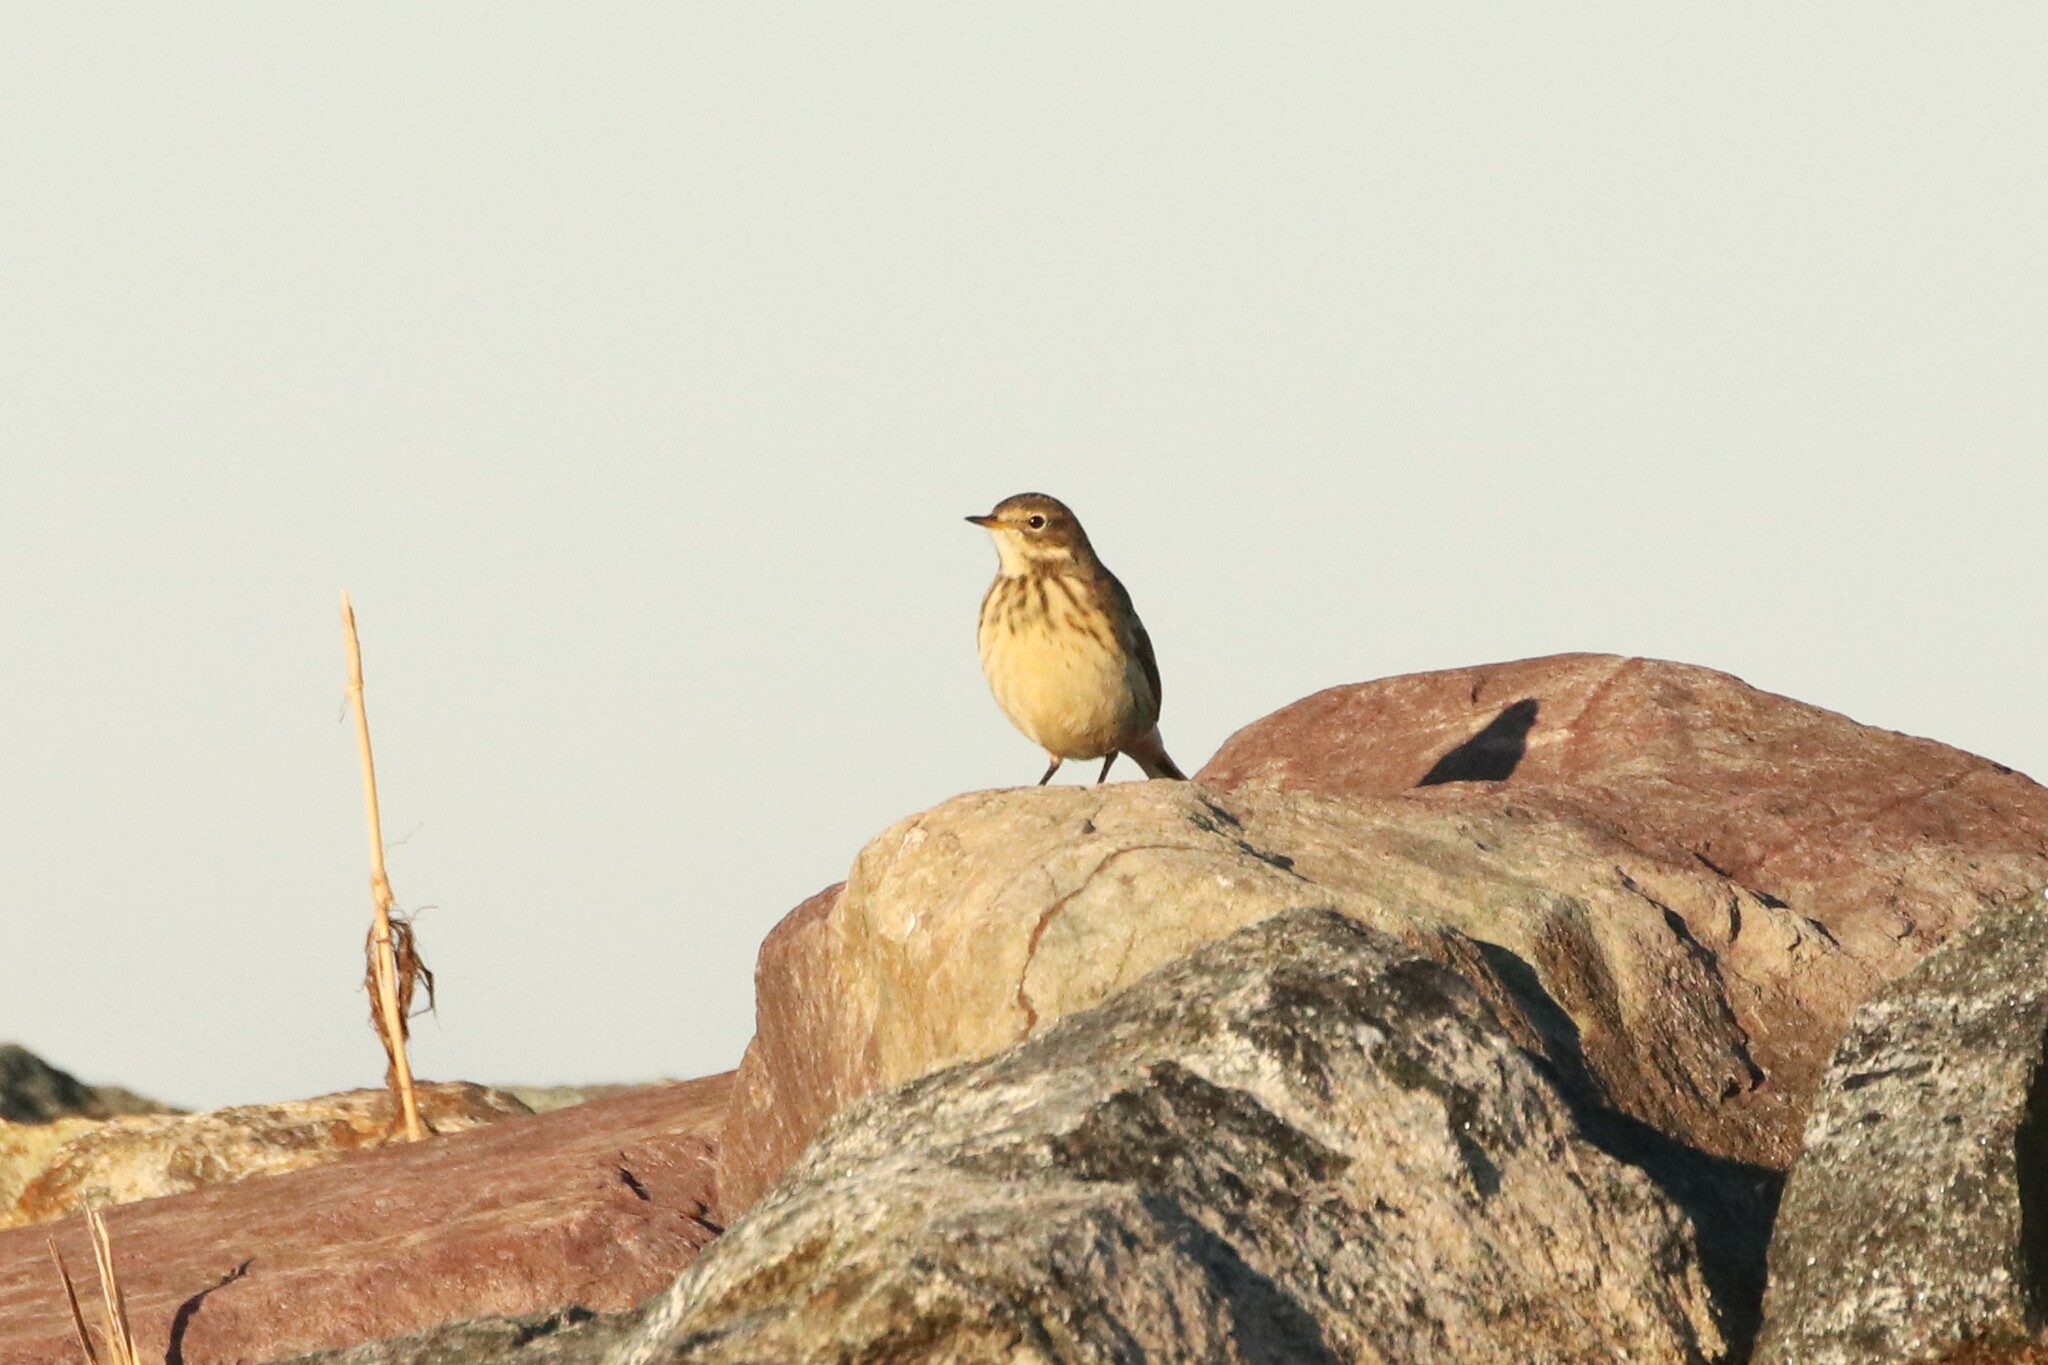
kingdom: Animalia
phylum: Chordata
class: Aves
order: Passeriformes
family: Motacillidae
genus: Anthus
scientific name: Anthus rubescens
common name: Buff-bellied pipit
